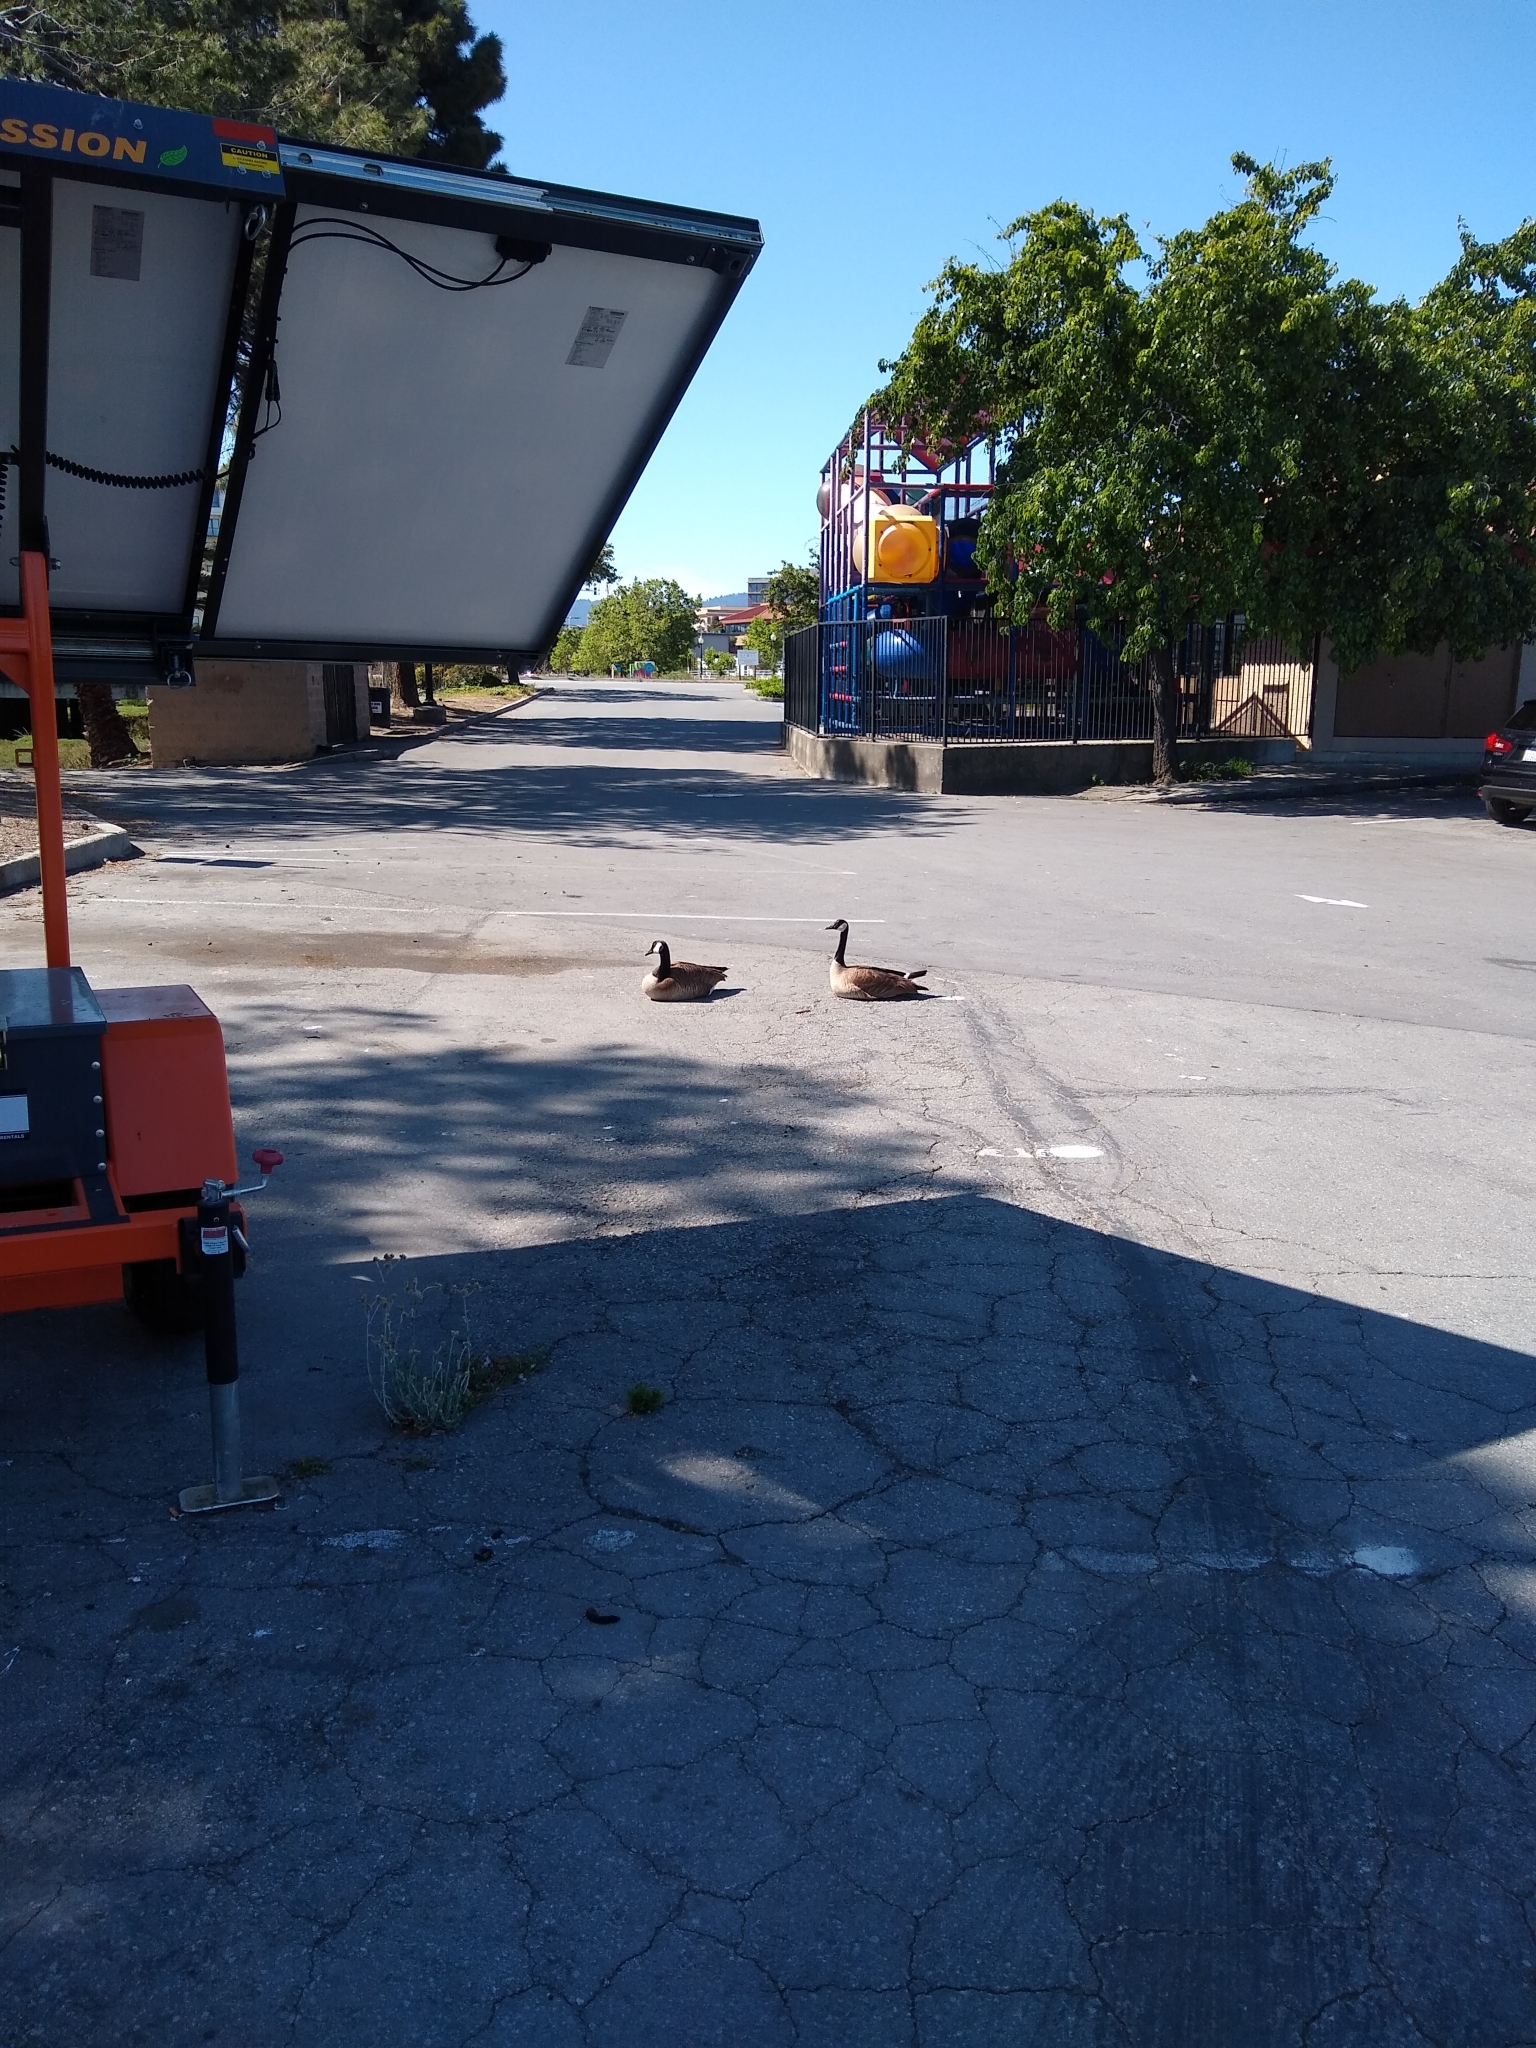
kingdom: Animalia
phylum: Chordata
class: Aves
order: Anseriformes
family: Anatidae
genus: Branta
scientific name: Branta canadensis
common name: Canada goose
